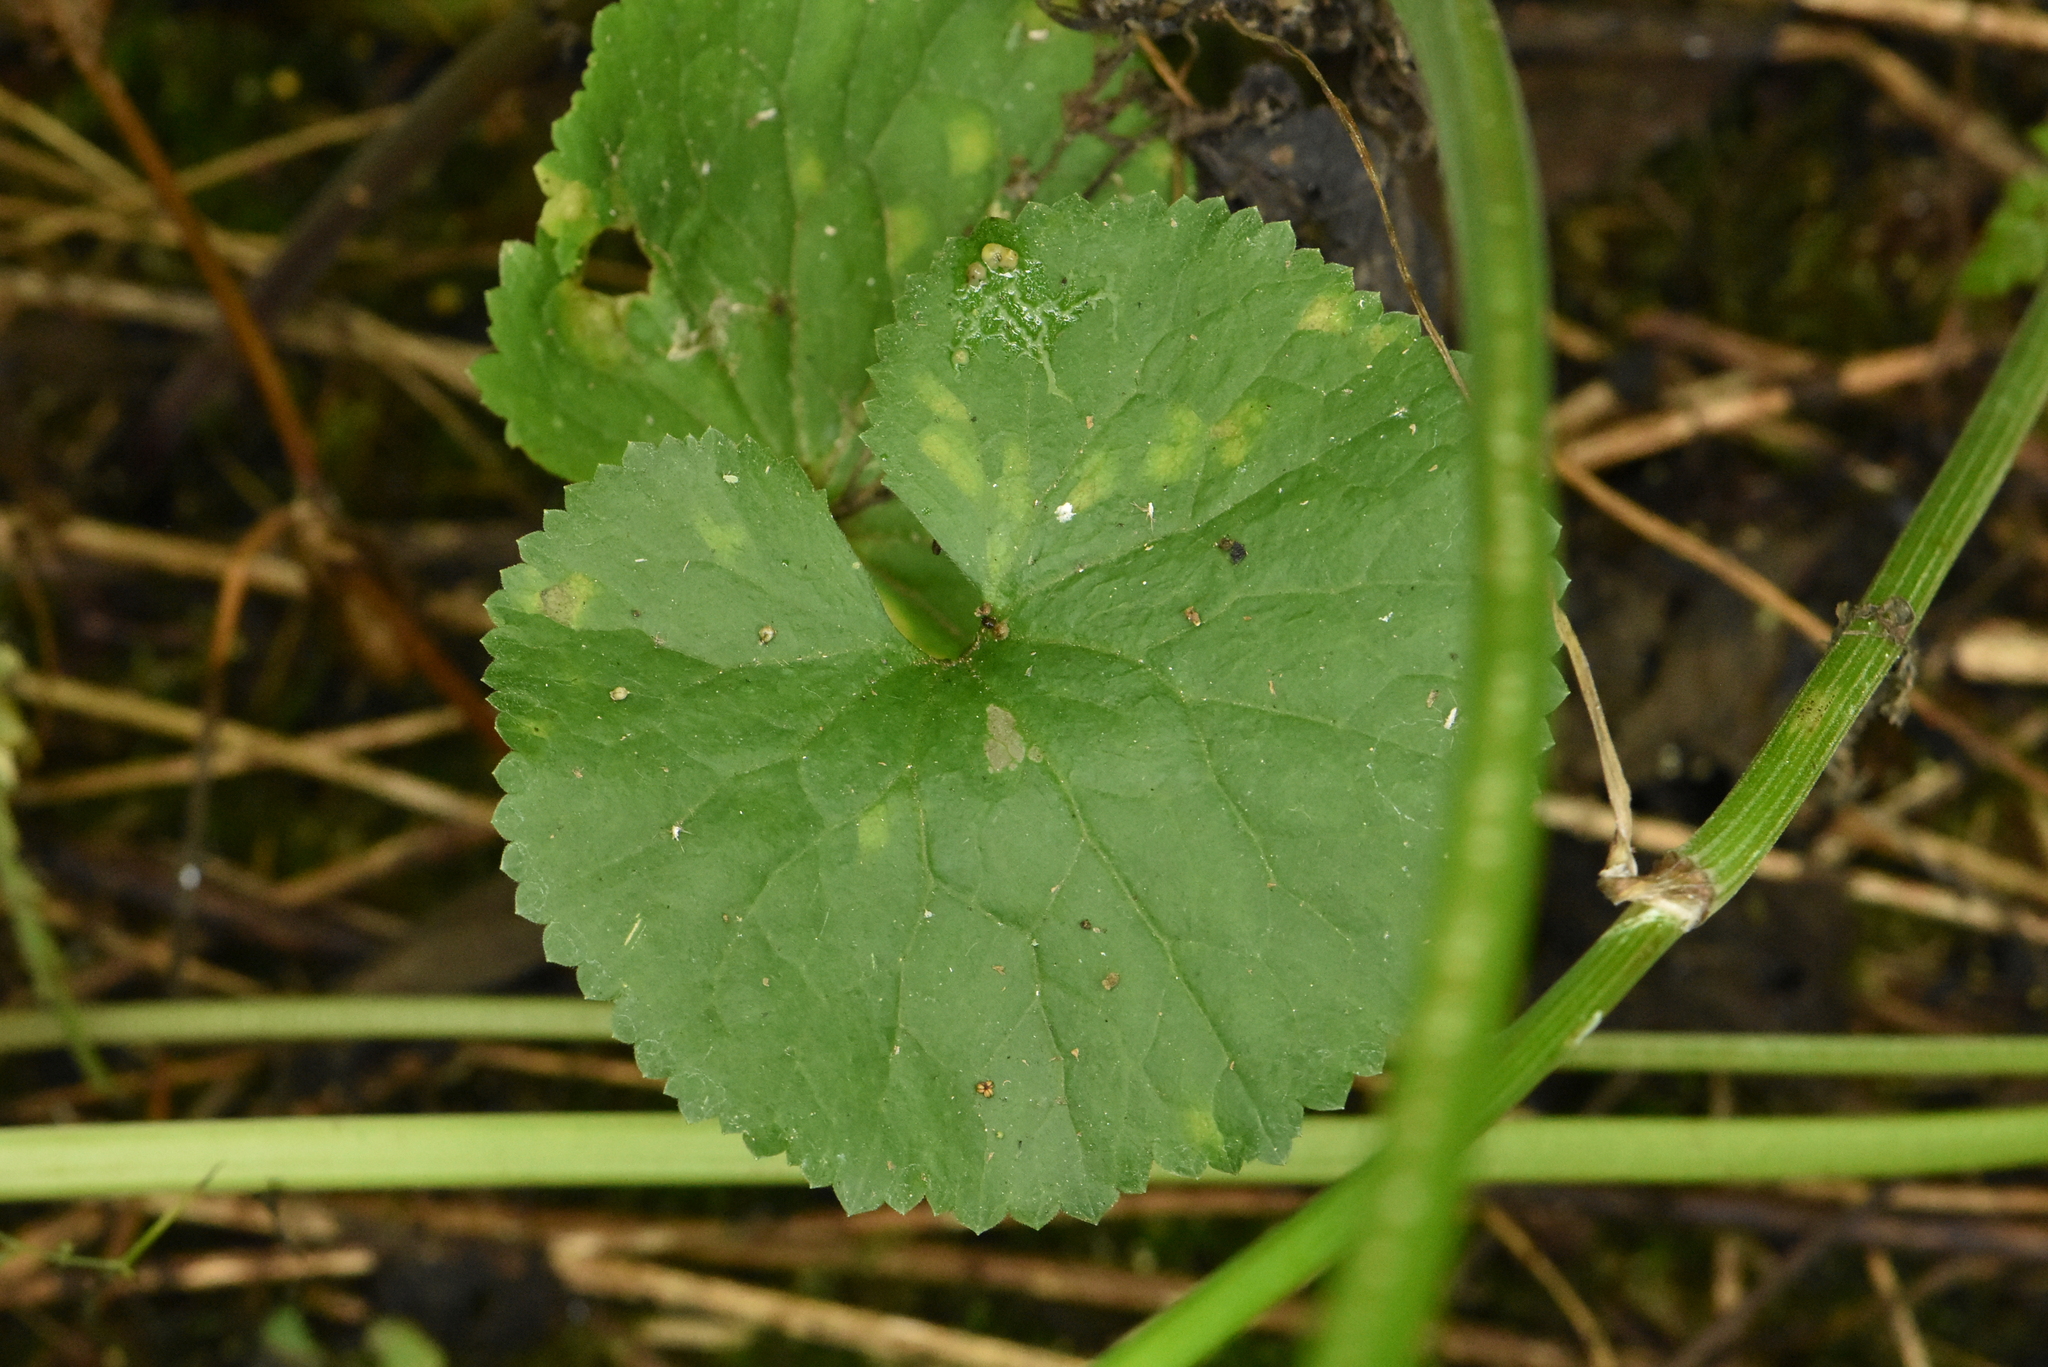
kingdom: Plantae
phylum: Tracheophyta
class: Magnoliopsida
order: Ranunculales
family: Ranunculaceae
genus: Ranunculus
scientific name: Ranunculus cassubicus
